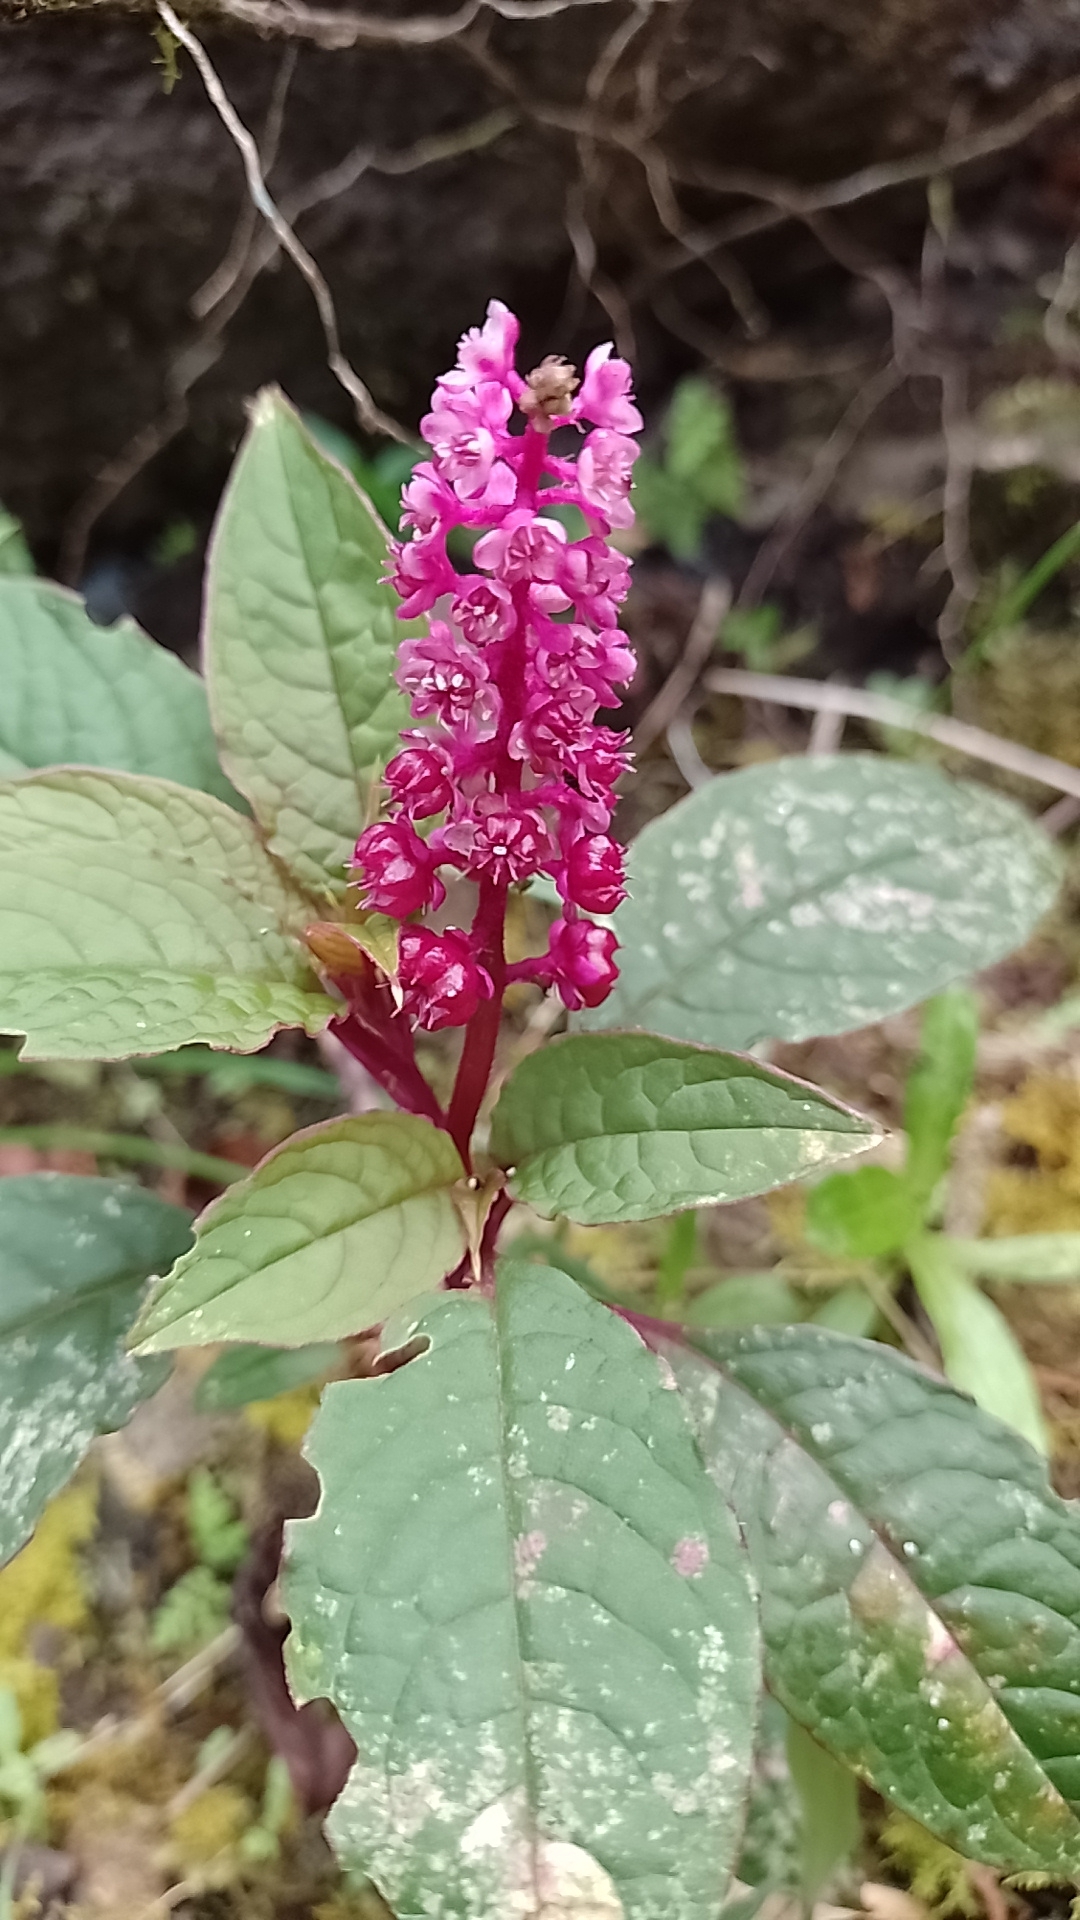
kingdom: Plantae
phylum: Tracheophyta
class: Magnoliopsida
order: Caryophyllales
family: Phytolaccaceae
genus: Phytolacca
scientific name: Phytolacca rugosa
